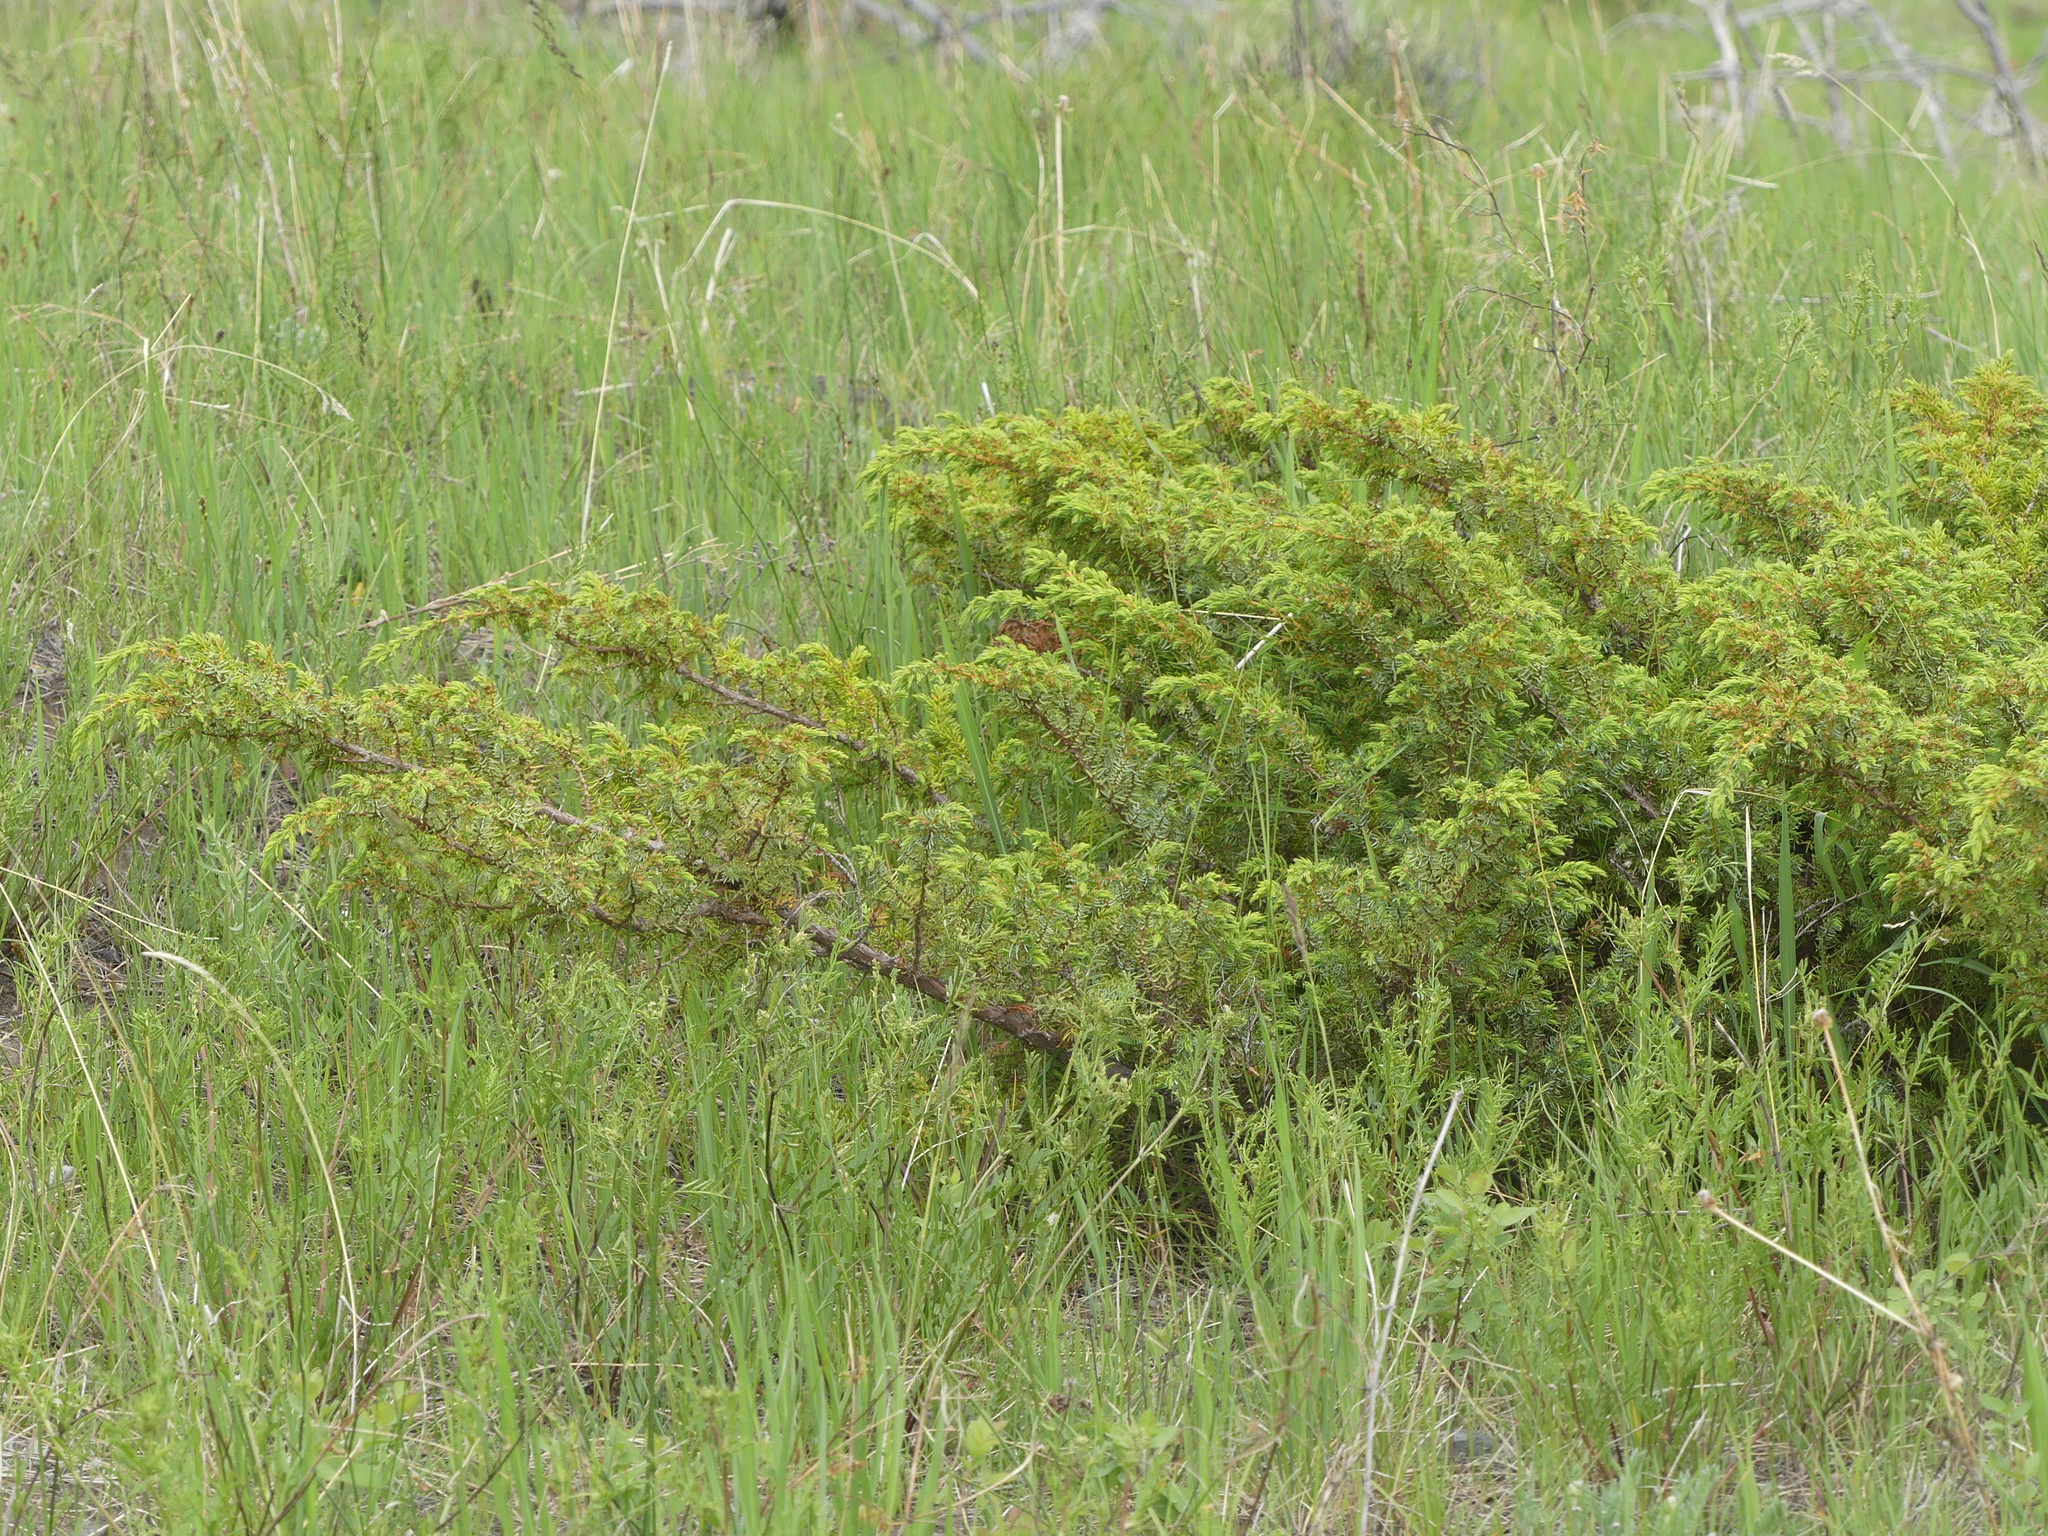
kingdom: Plantae
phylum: Tracheophyta
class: Pinopsida
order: Pinales
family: Cupressaceae
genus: Juniperus
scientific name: Juniperus communis
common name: Common juniper
